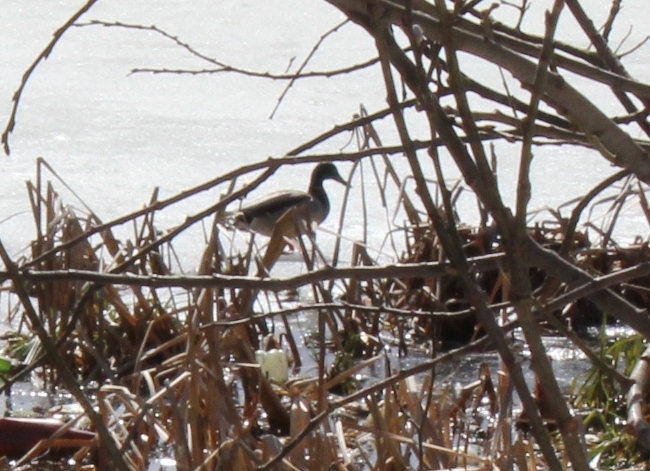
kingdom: Animalia
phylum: Chordata
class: Aves
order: Anseriformes
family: Anatidae
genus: Anas
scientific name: Anas platyrhynchos
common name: Mallard
